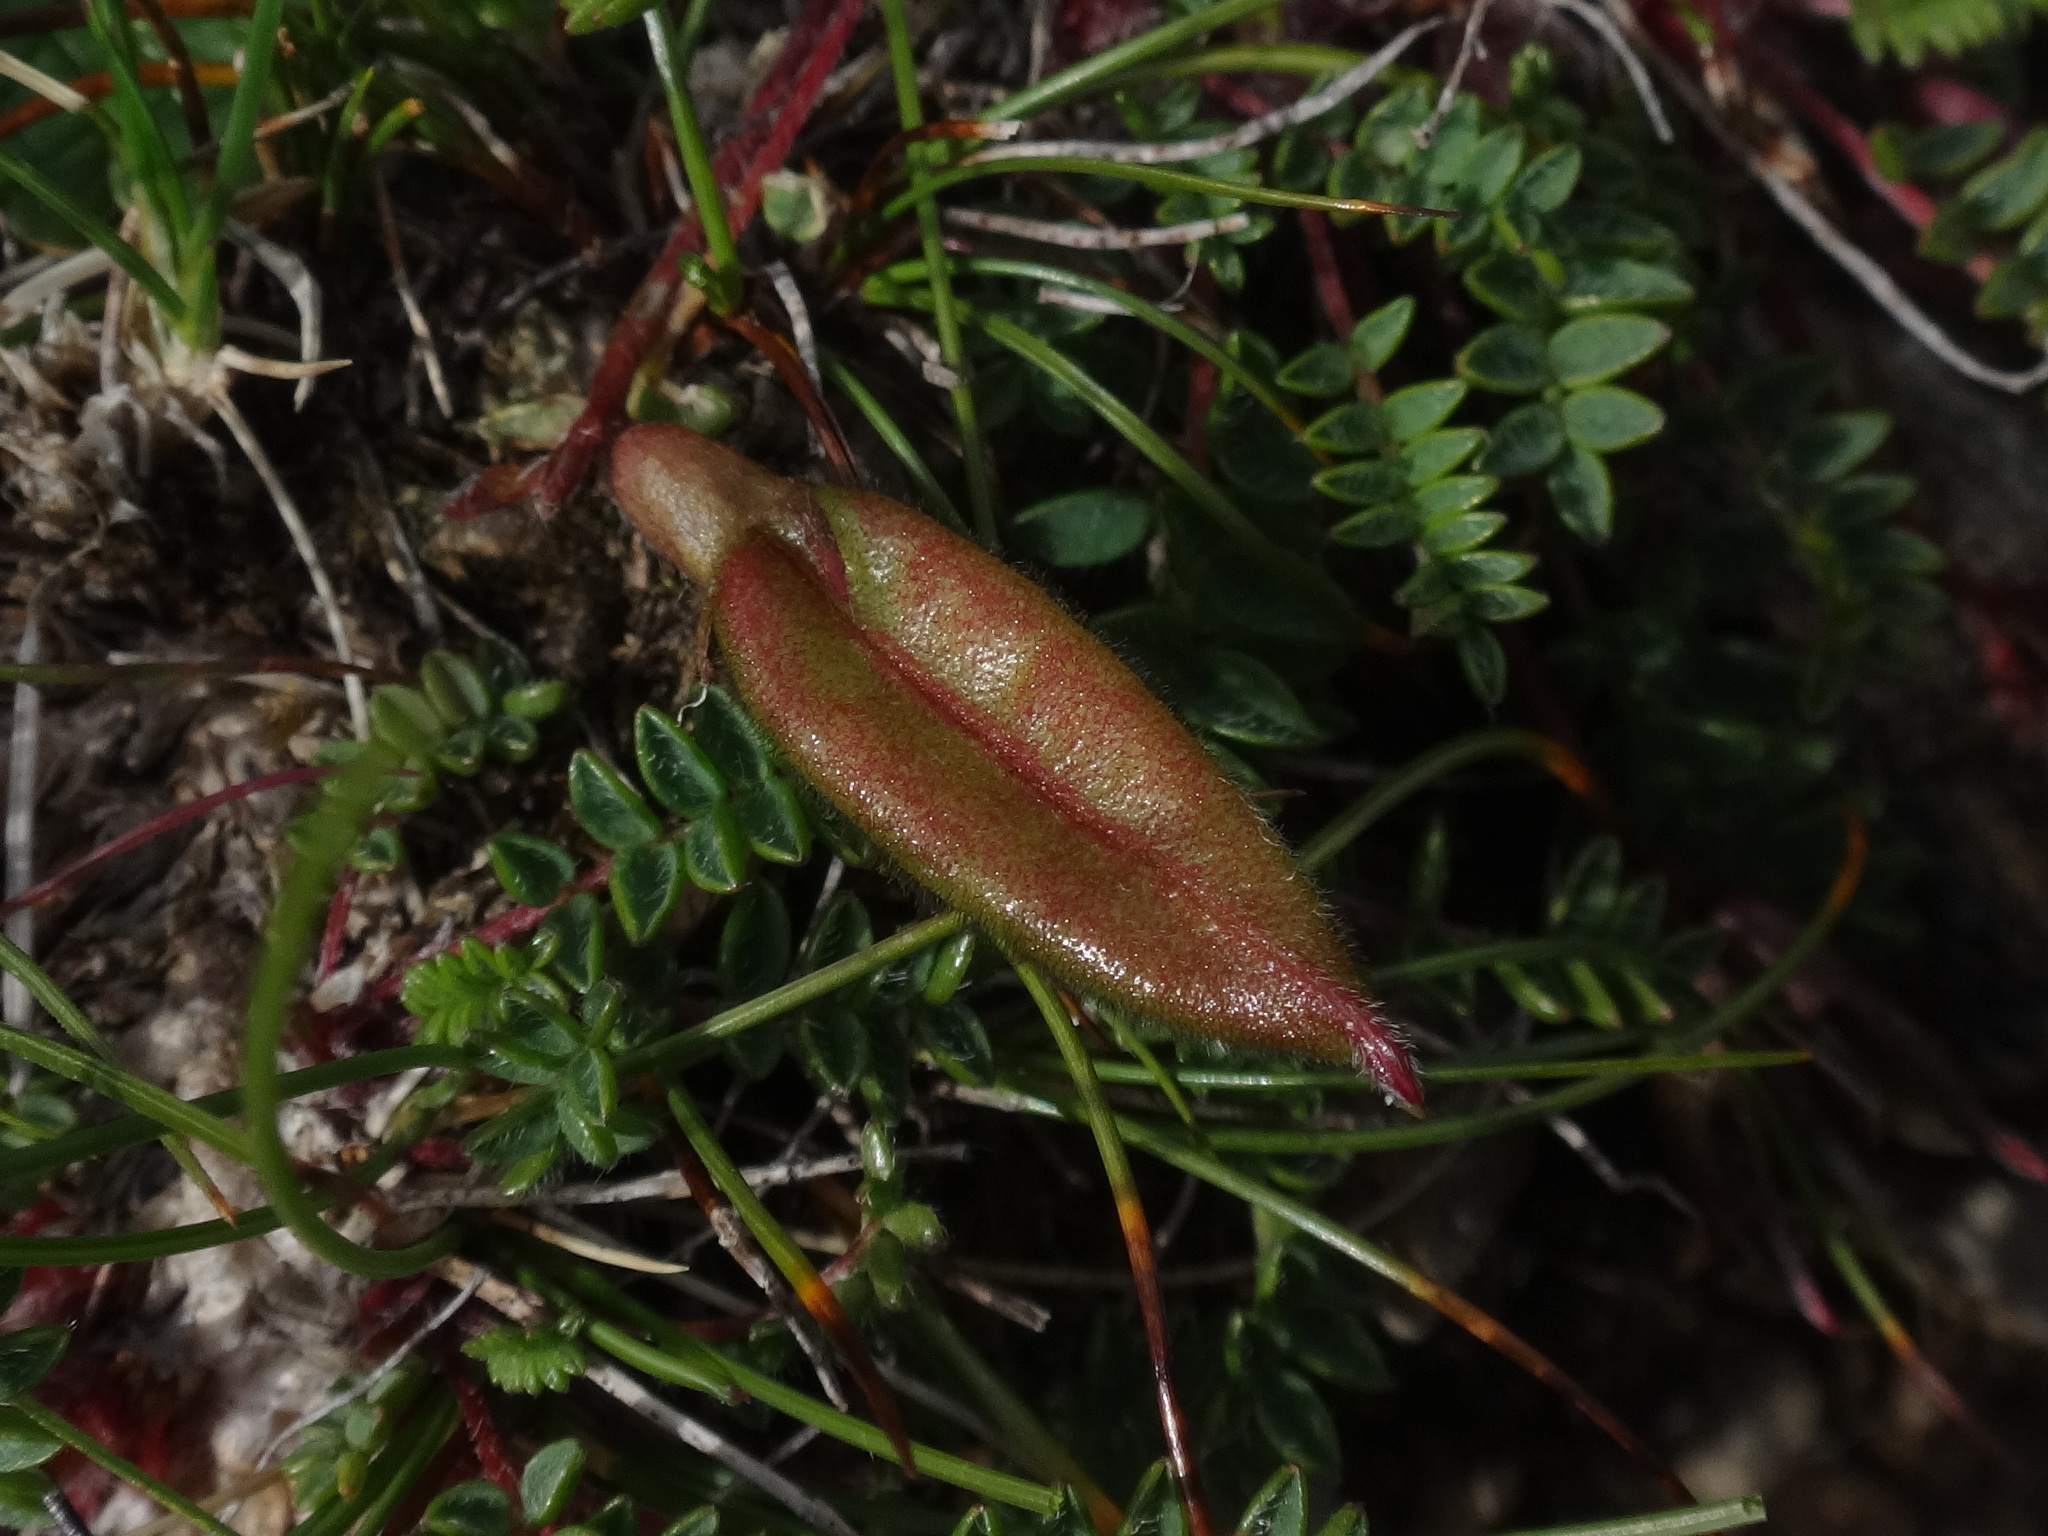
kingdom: Plantae
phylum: Tracheophyta
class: Magnoliopsida
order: Fabales
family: Fabaceae
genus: Oxytropis
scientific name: Oxytropis triflora
